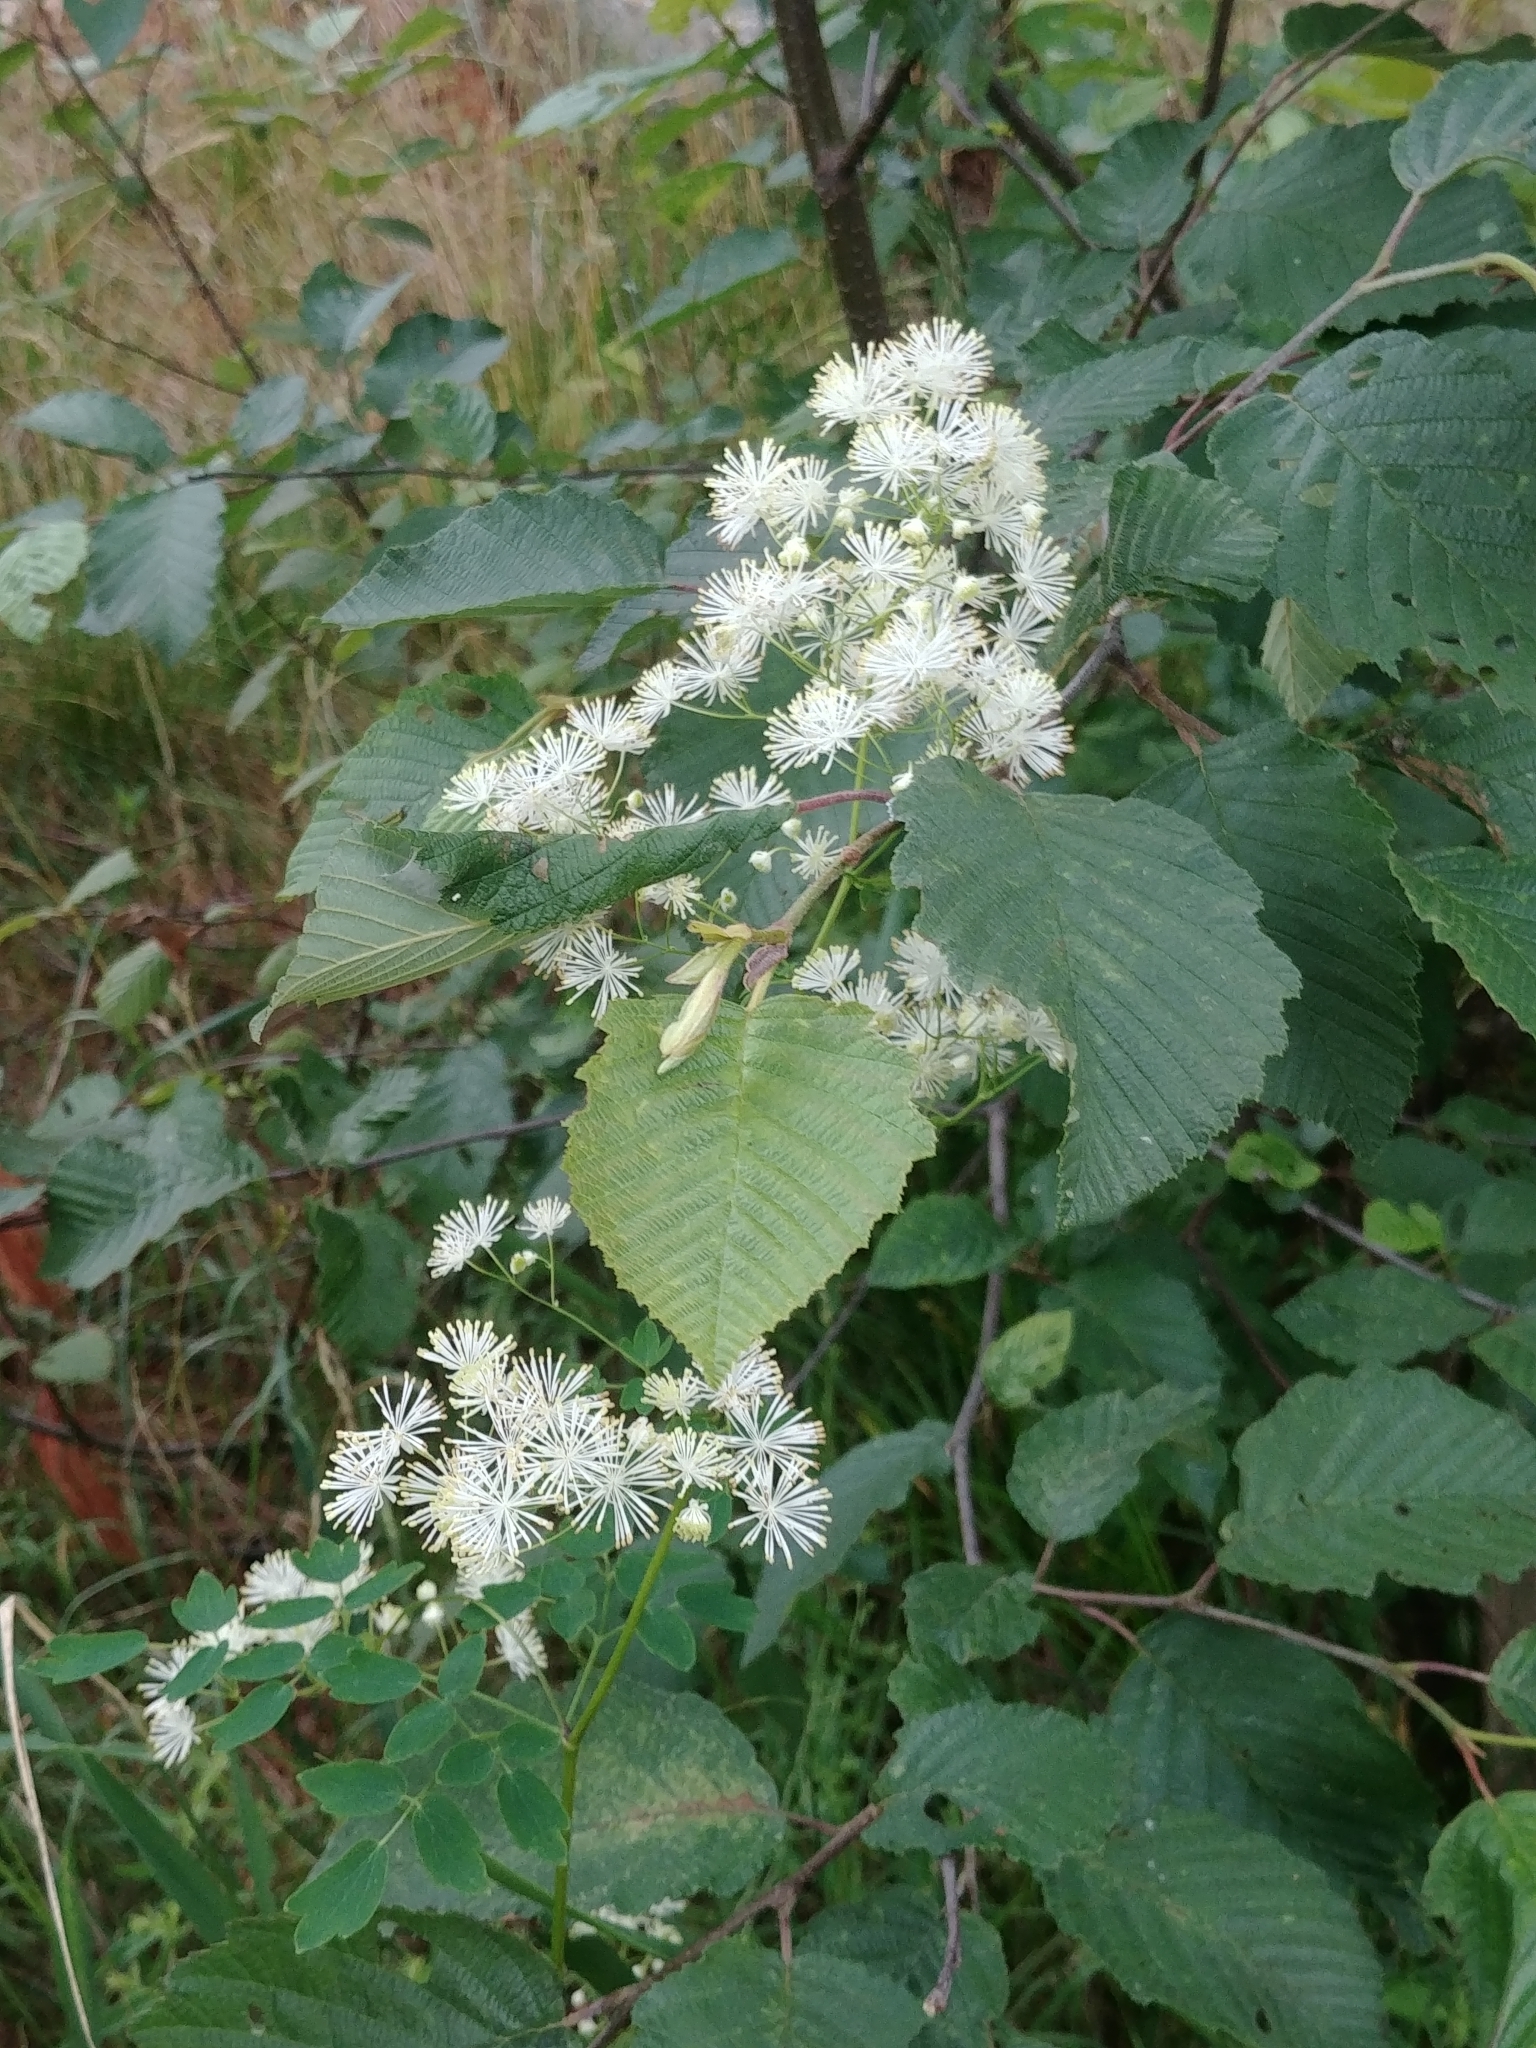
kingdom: Plantae
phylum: Tracheophyta
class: Magnoliopsida
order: Ranunculales
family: Ranunculaceae
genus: Thalictrum
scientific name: Thalictrum pubescens
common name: King-of-the-meadow
